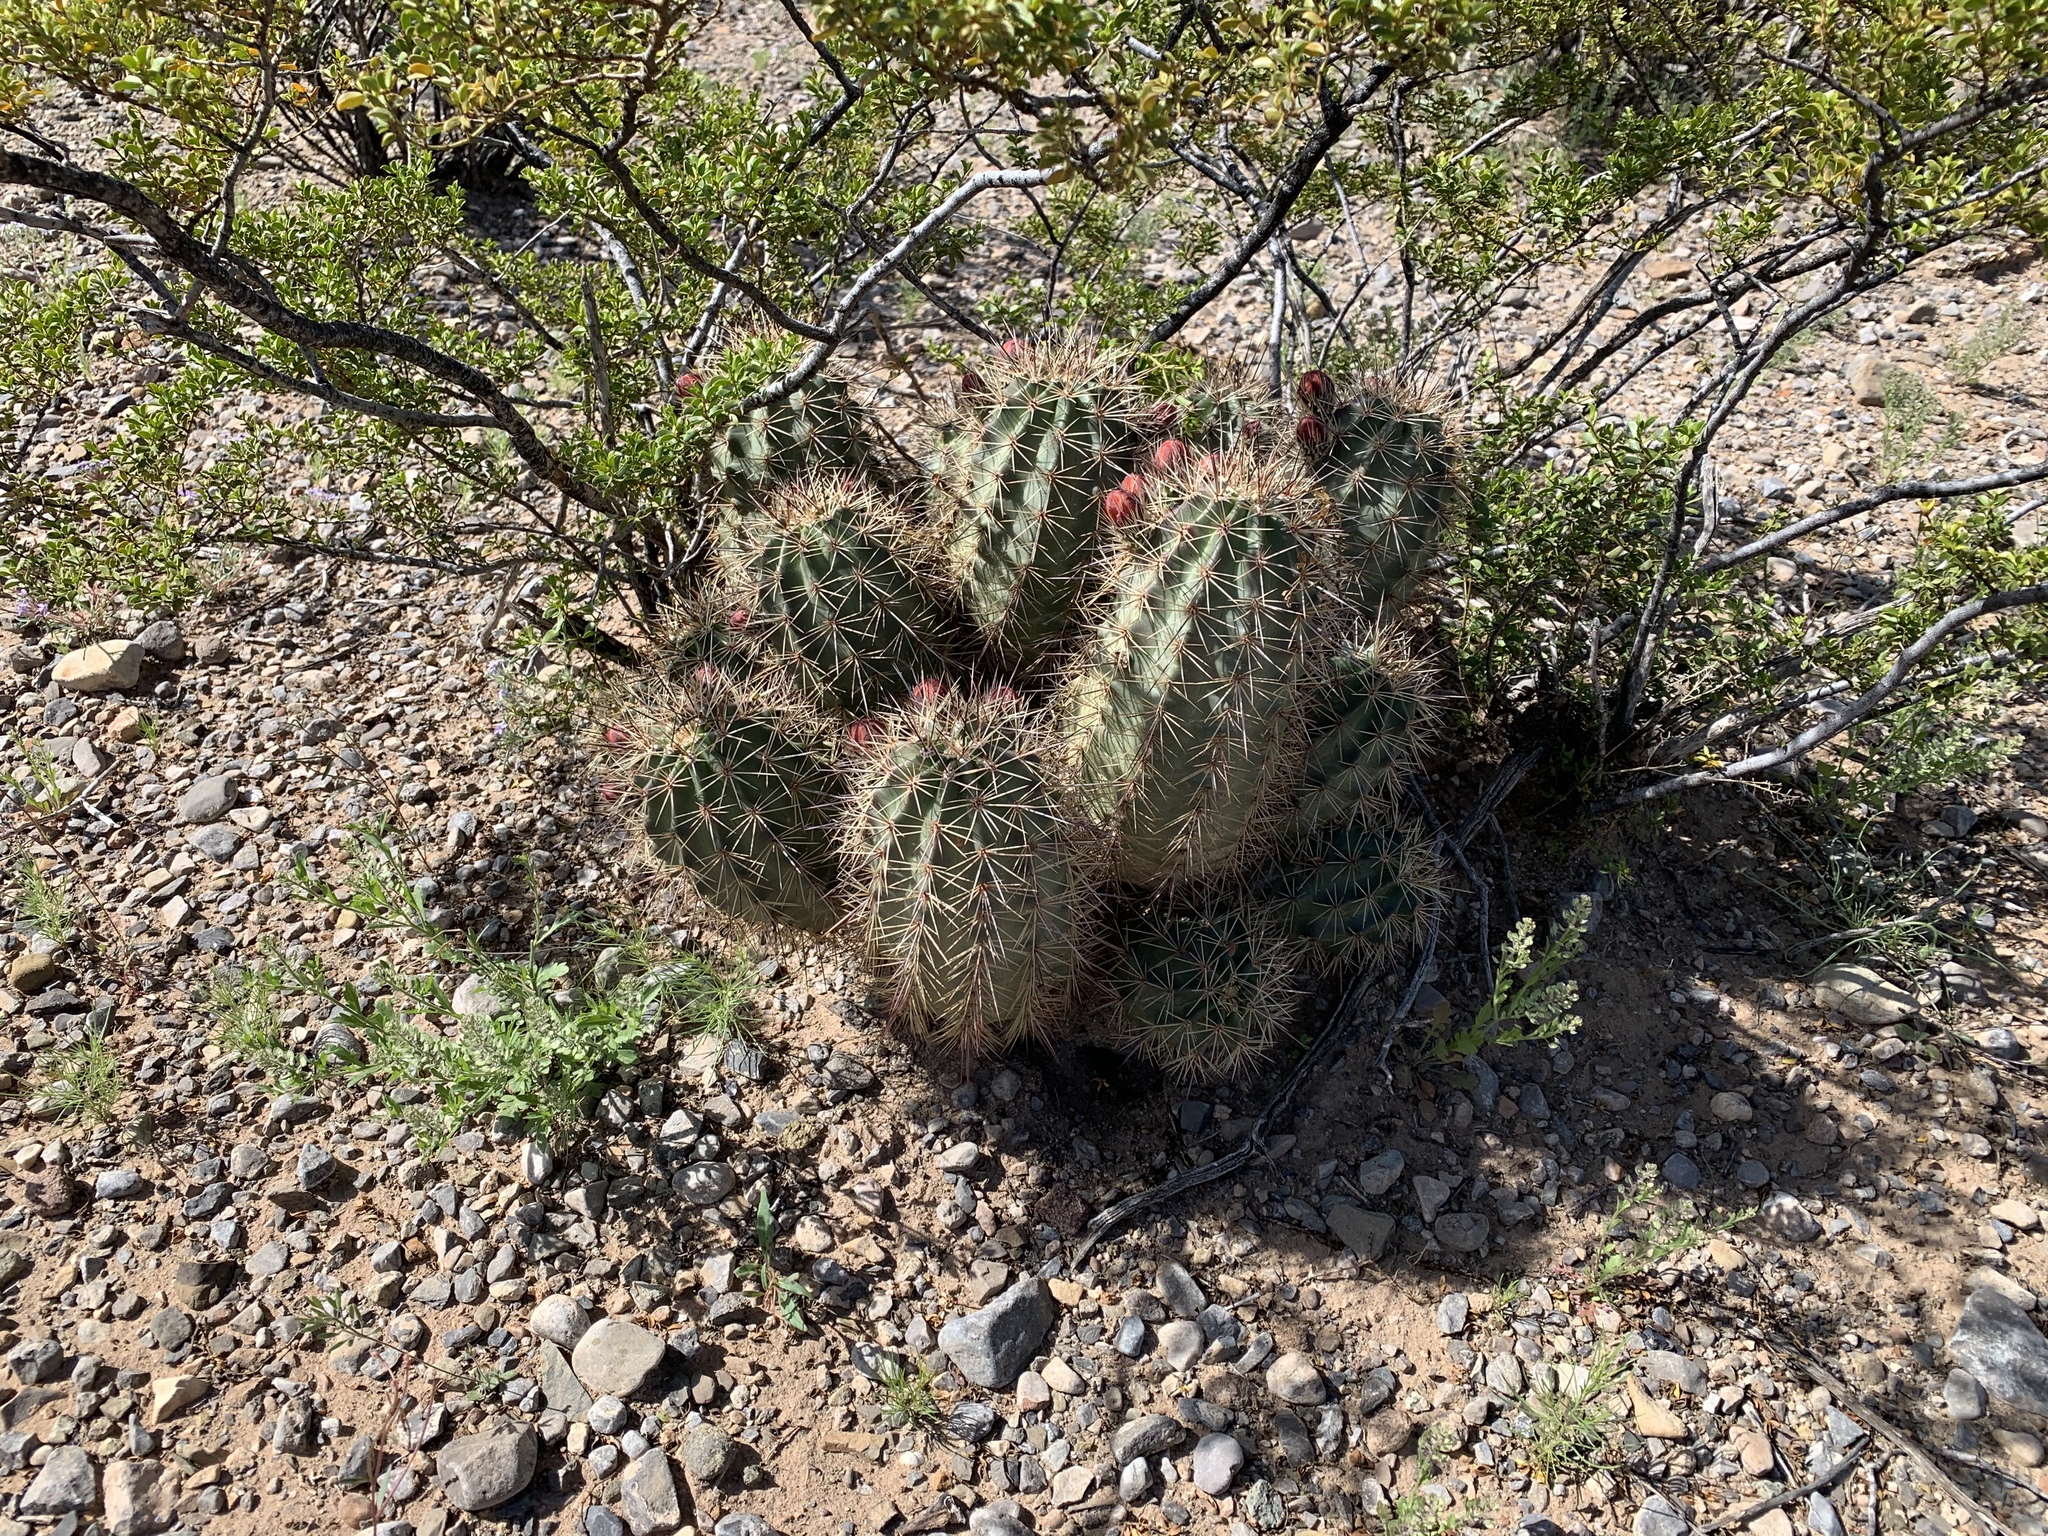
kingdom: Plantae
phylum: Tracheophyta
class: Magnoliopsida
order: Caryophyllales
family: Cactaceae
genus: Echinocereus
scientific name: Echinocereus coccineus
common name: Scarlet hedgehog cactus
